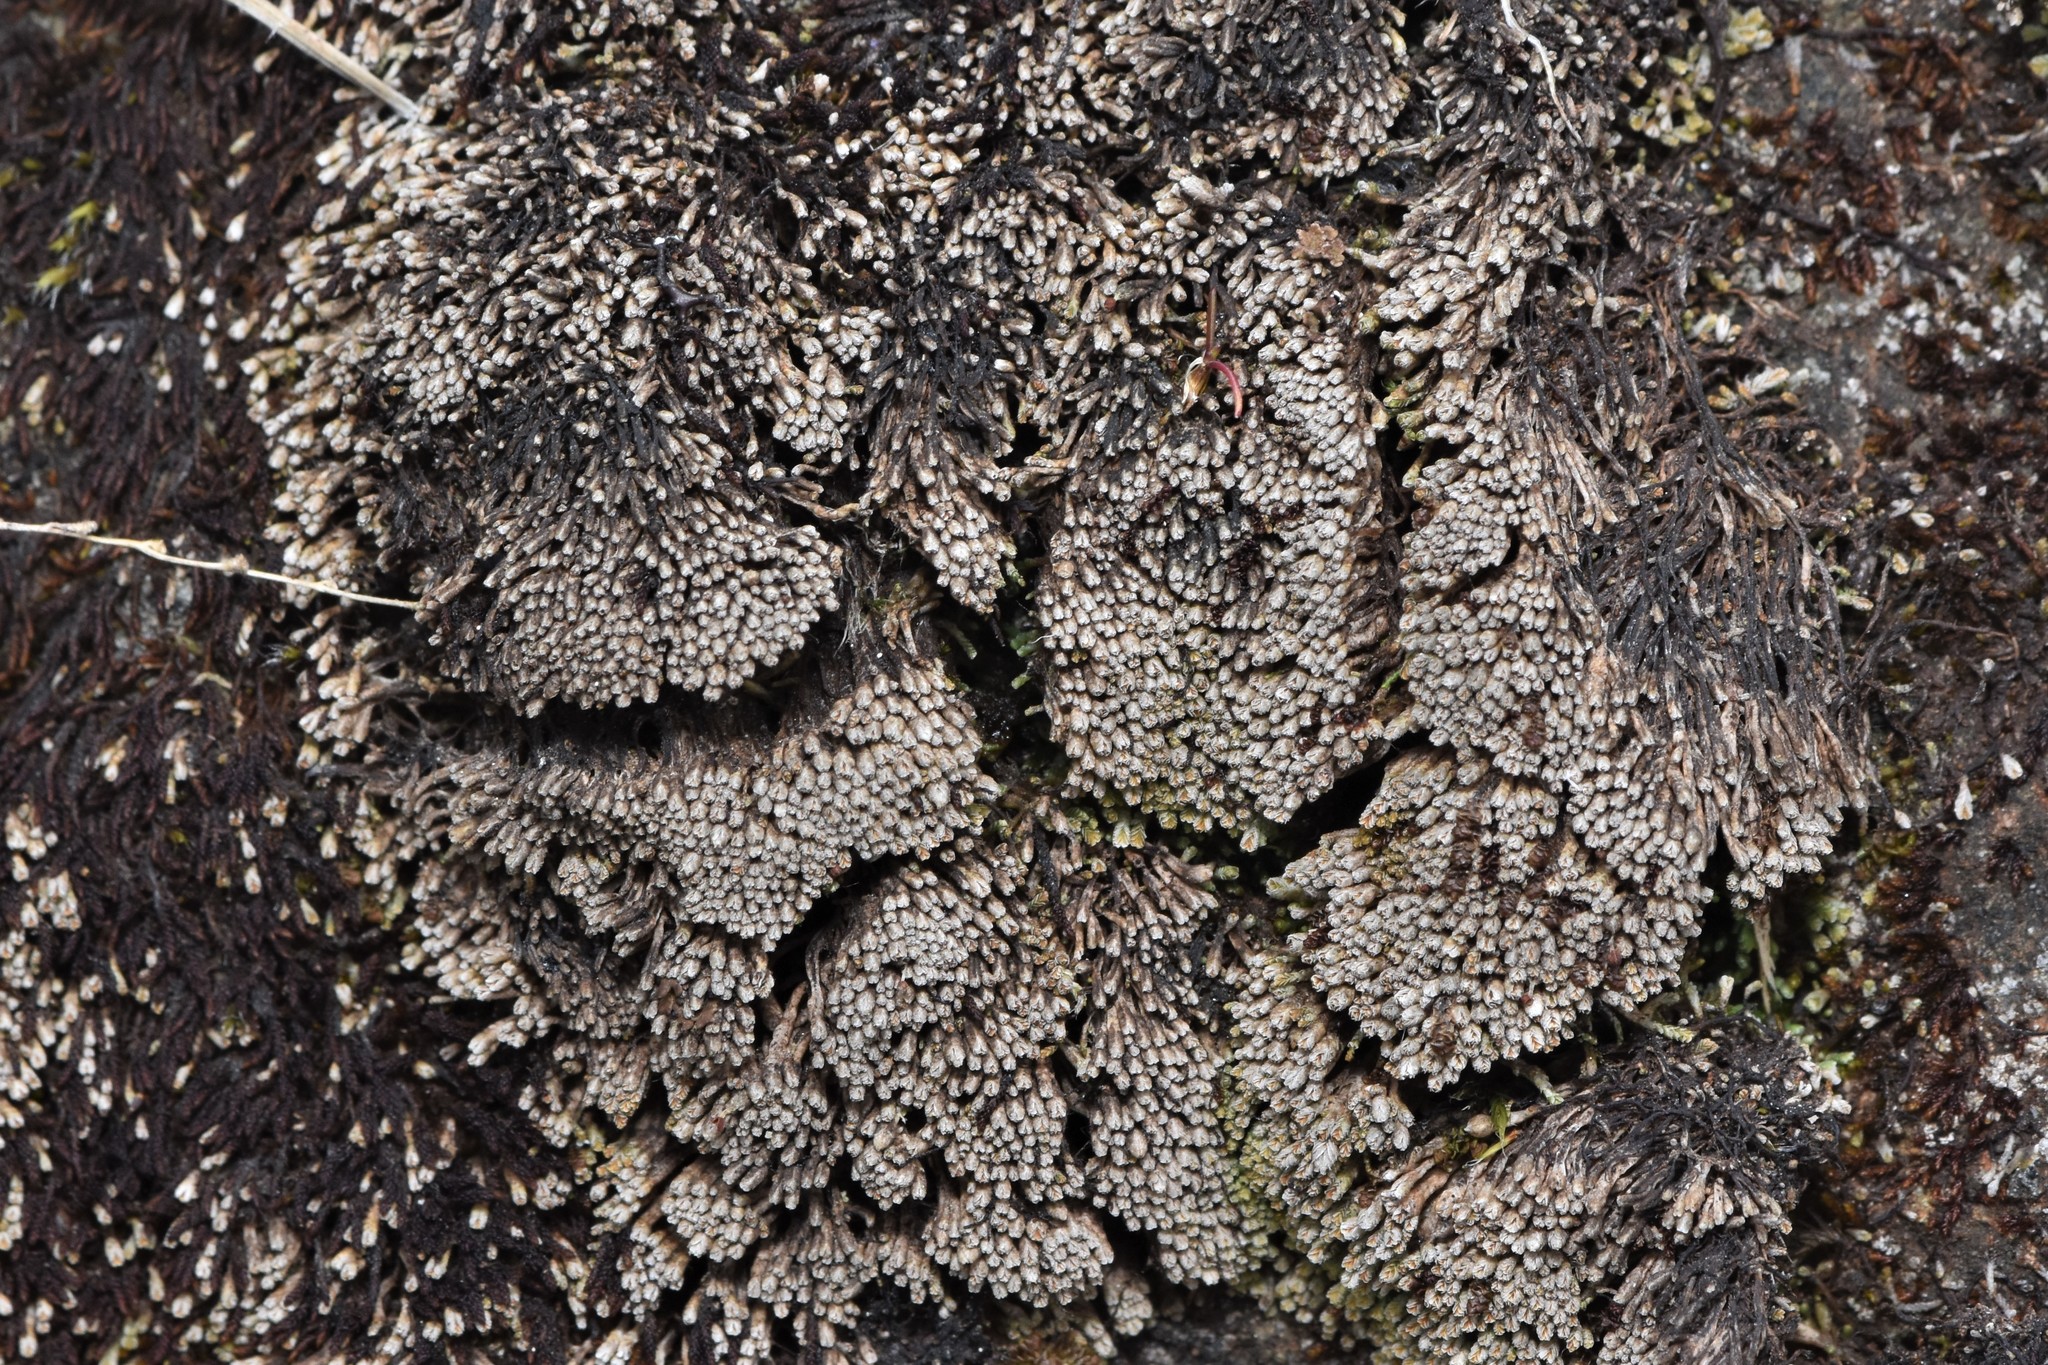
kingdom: Plantae
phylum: Marchantiophyta
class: Jungermanniopsida
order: Jungermanniales
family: Gymnomitriaceae
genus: Gymnomitrion
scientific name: Gymnomitrion obtusum
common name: White frostwort
